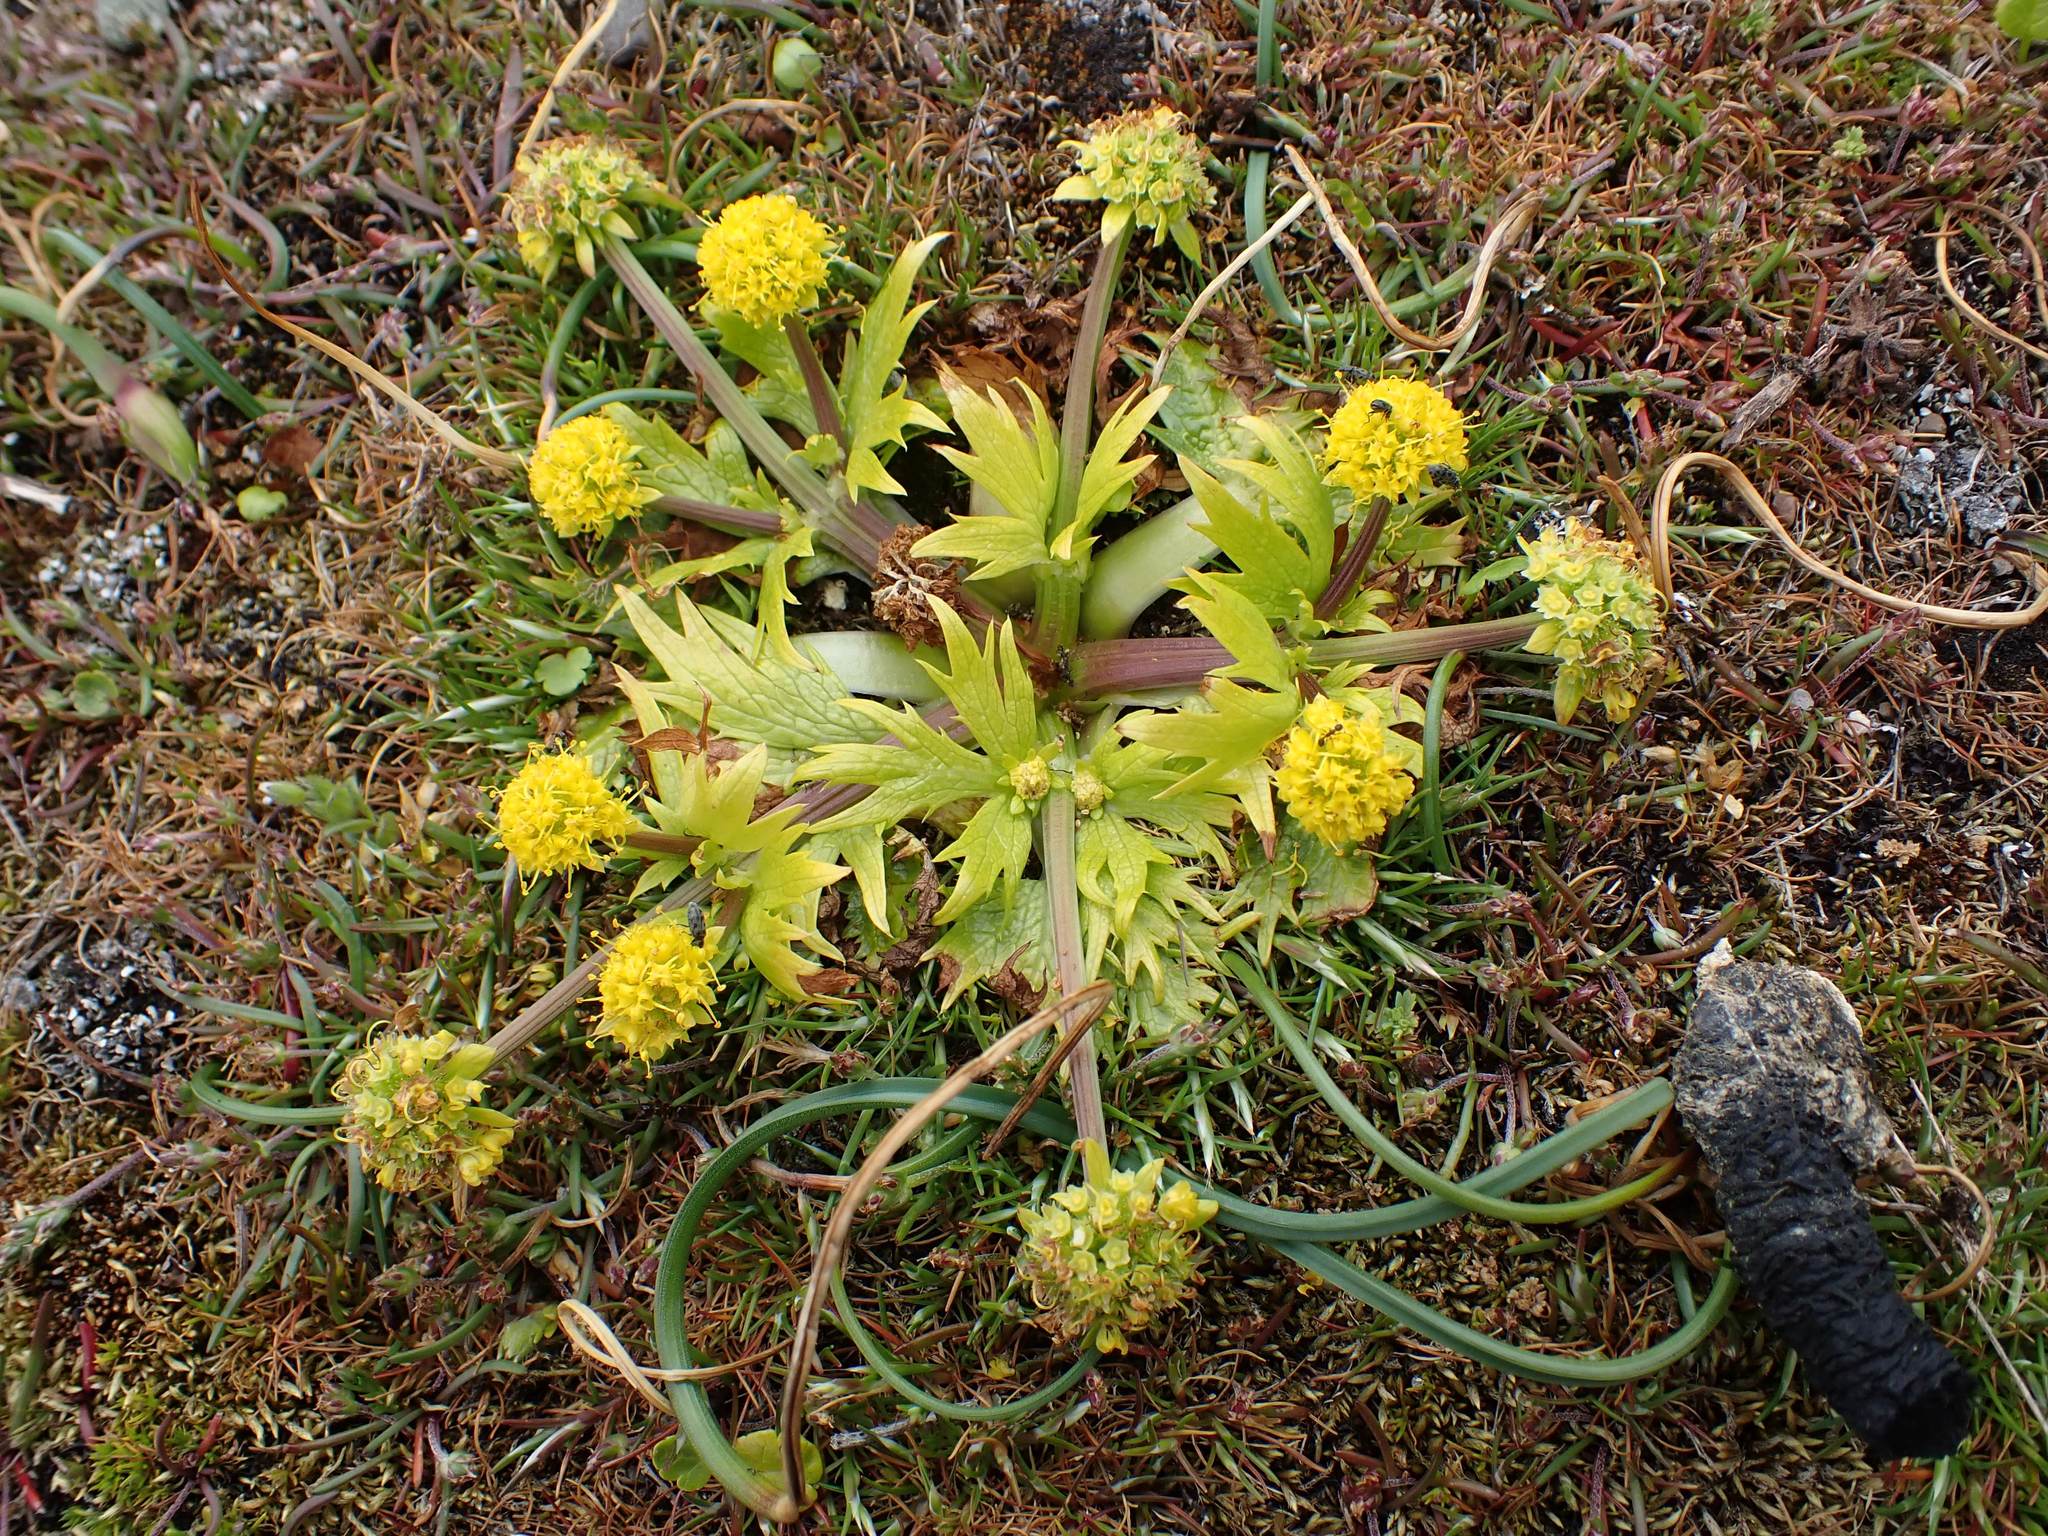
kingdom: Plantae
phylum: Tracheophyta
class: Magnoliopsida
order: Apiales
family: Apiaceae
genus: Sanicula
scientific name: Sanicula arctopoides
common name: Footsteps-of-spring
